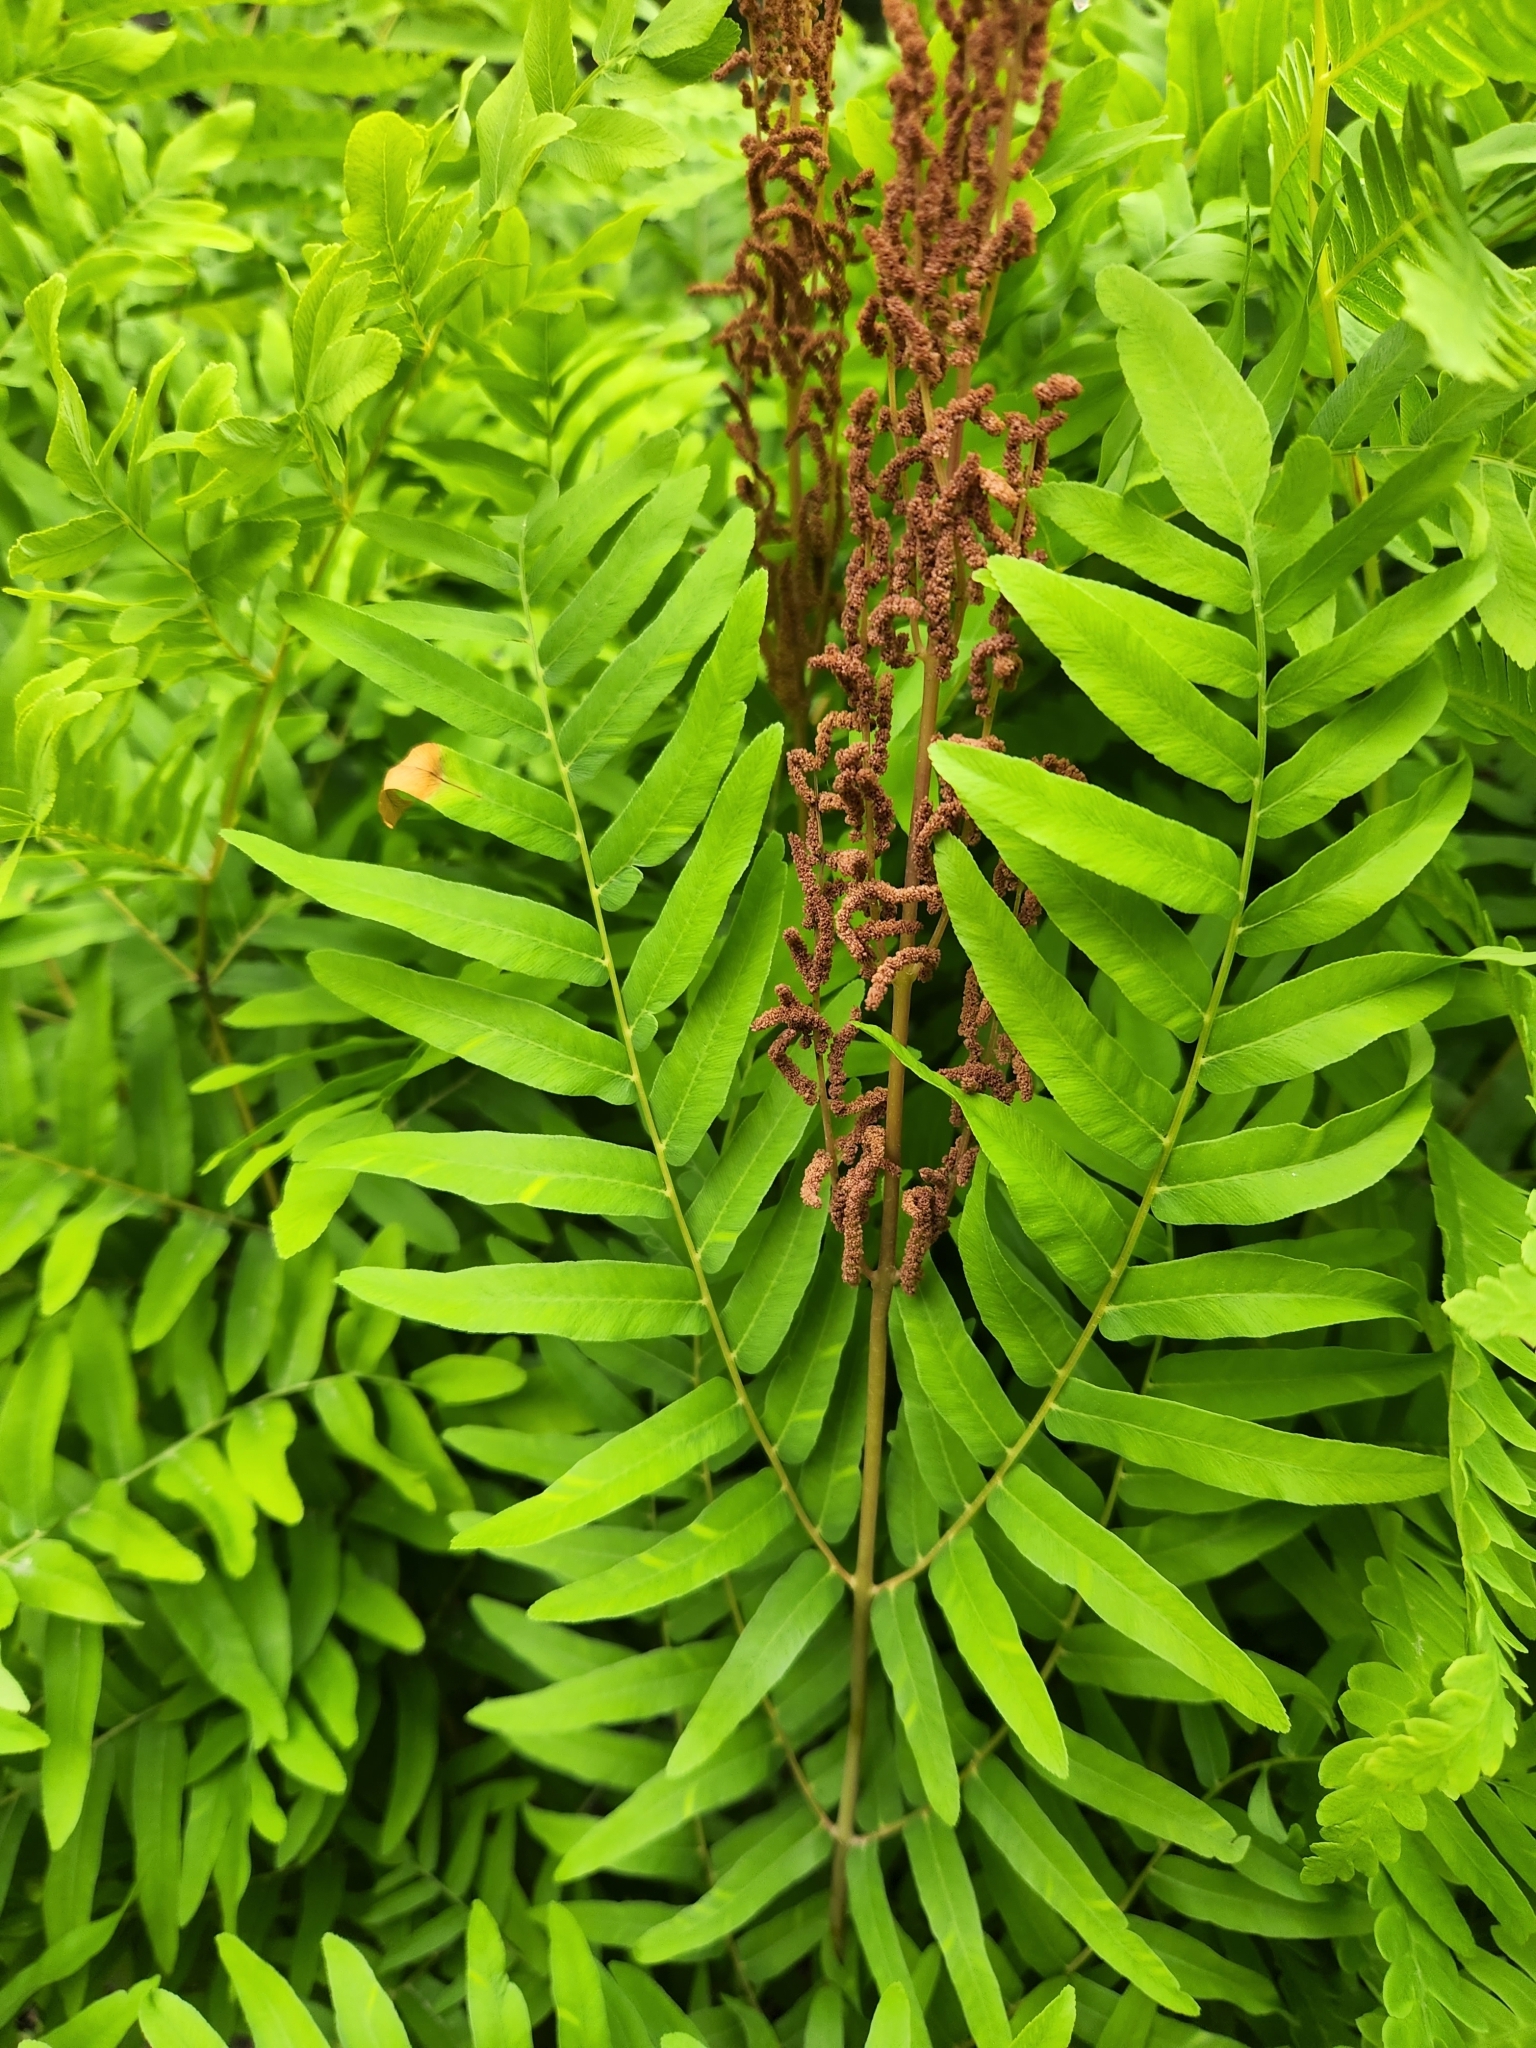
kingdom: Plantae
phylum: Tracheophyta
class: Polypodiopsida
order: Osmundales
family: Osmundaceae
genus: Osmunda
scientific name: Osmunda spectabilis
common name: American royal fern
